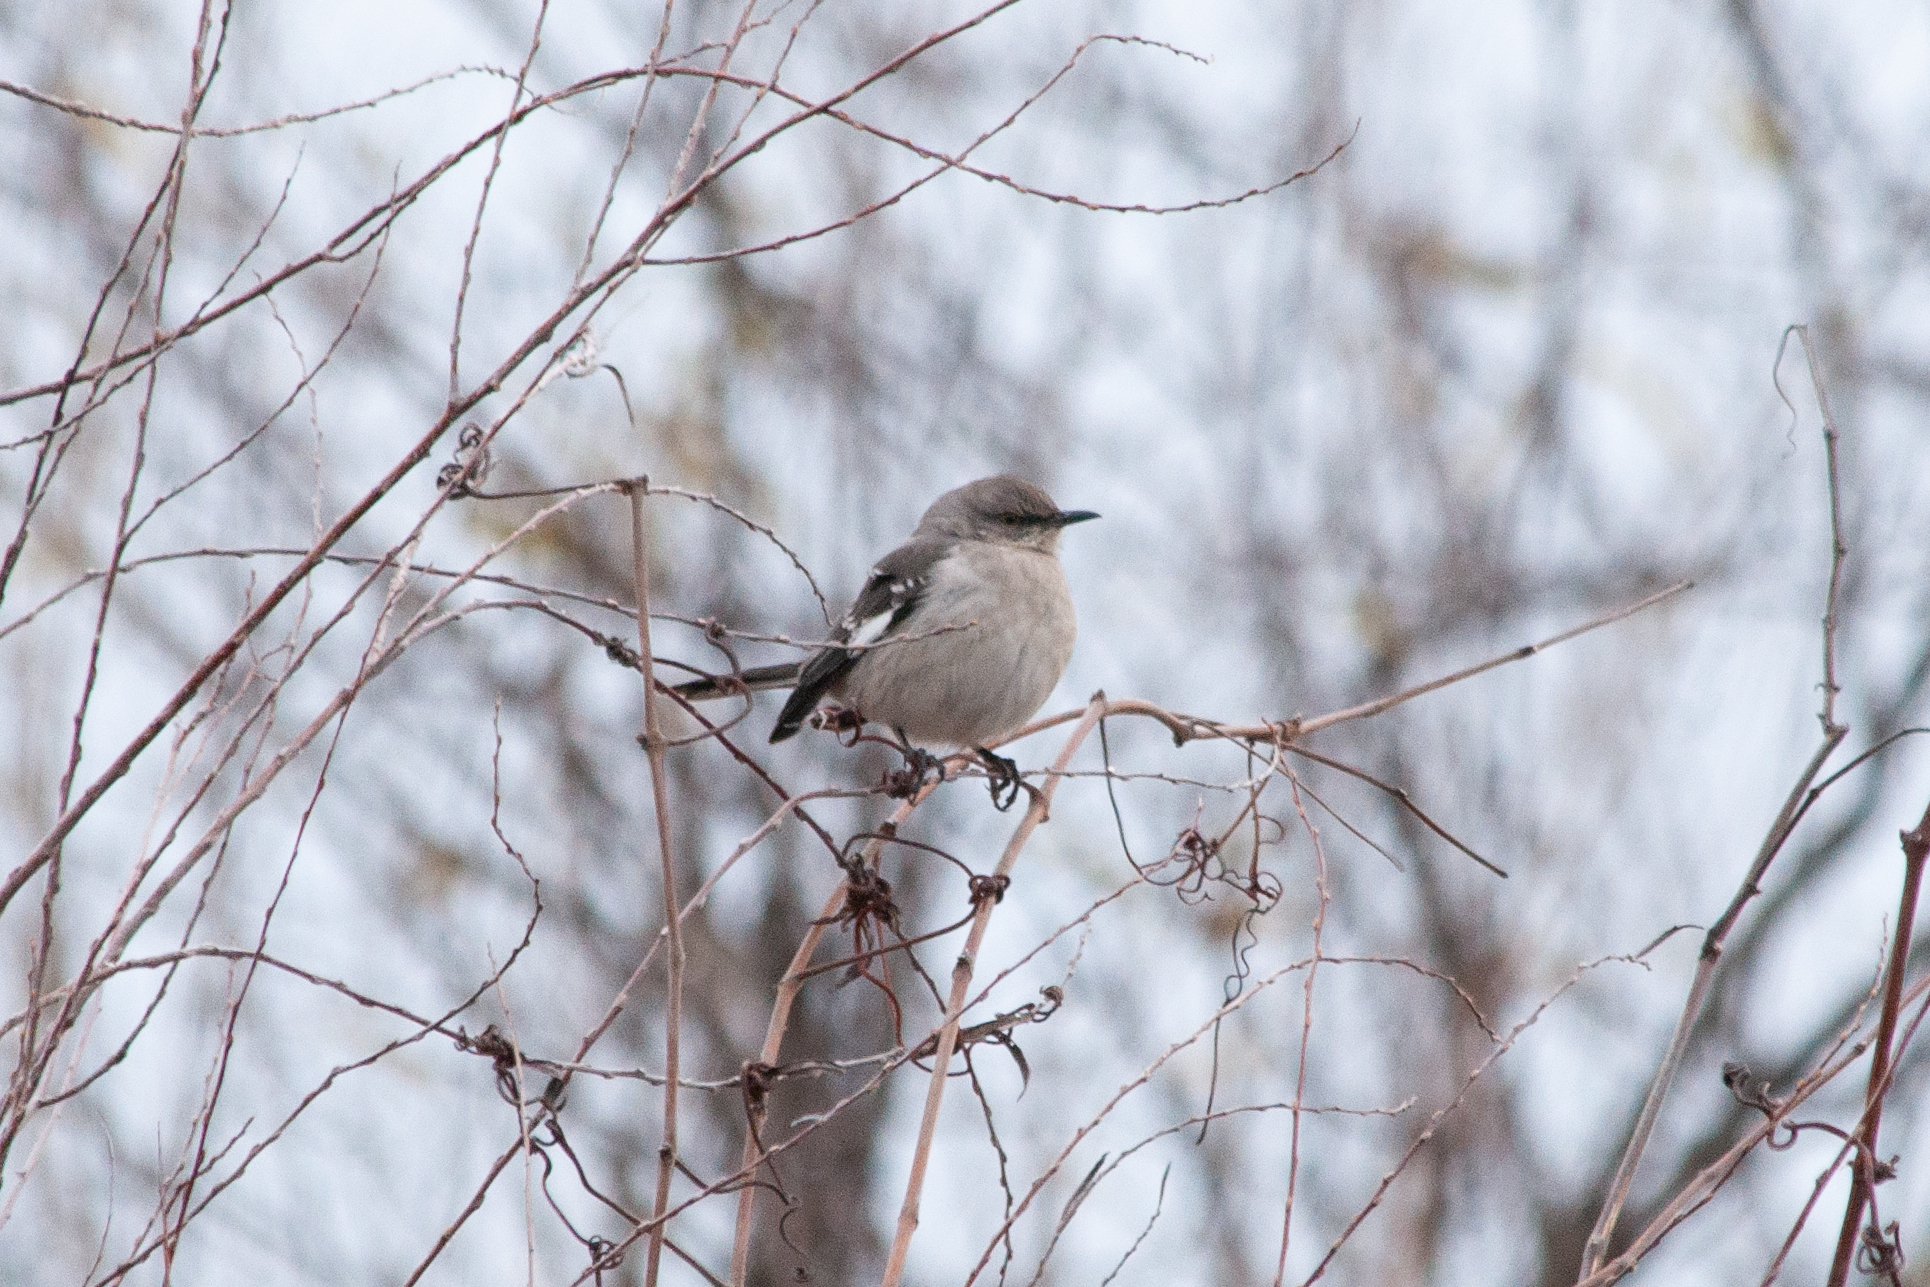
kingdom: Animalia
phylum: Chordata
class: Aves
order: Passeriformes
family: Mimidae
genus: Mimus
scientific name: Mimus polyglottos
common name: Northern mockingbird
